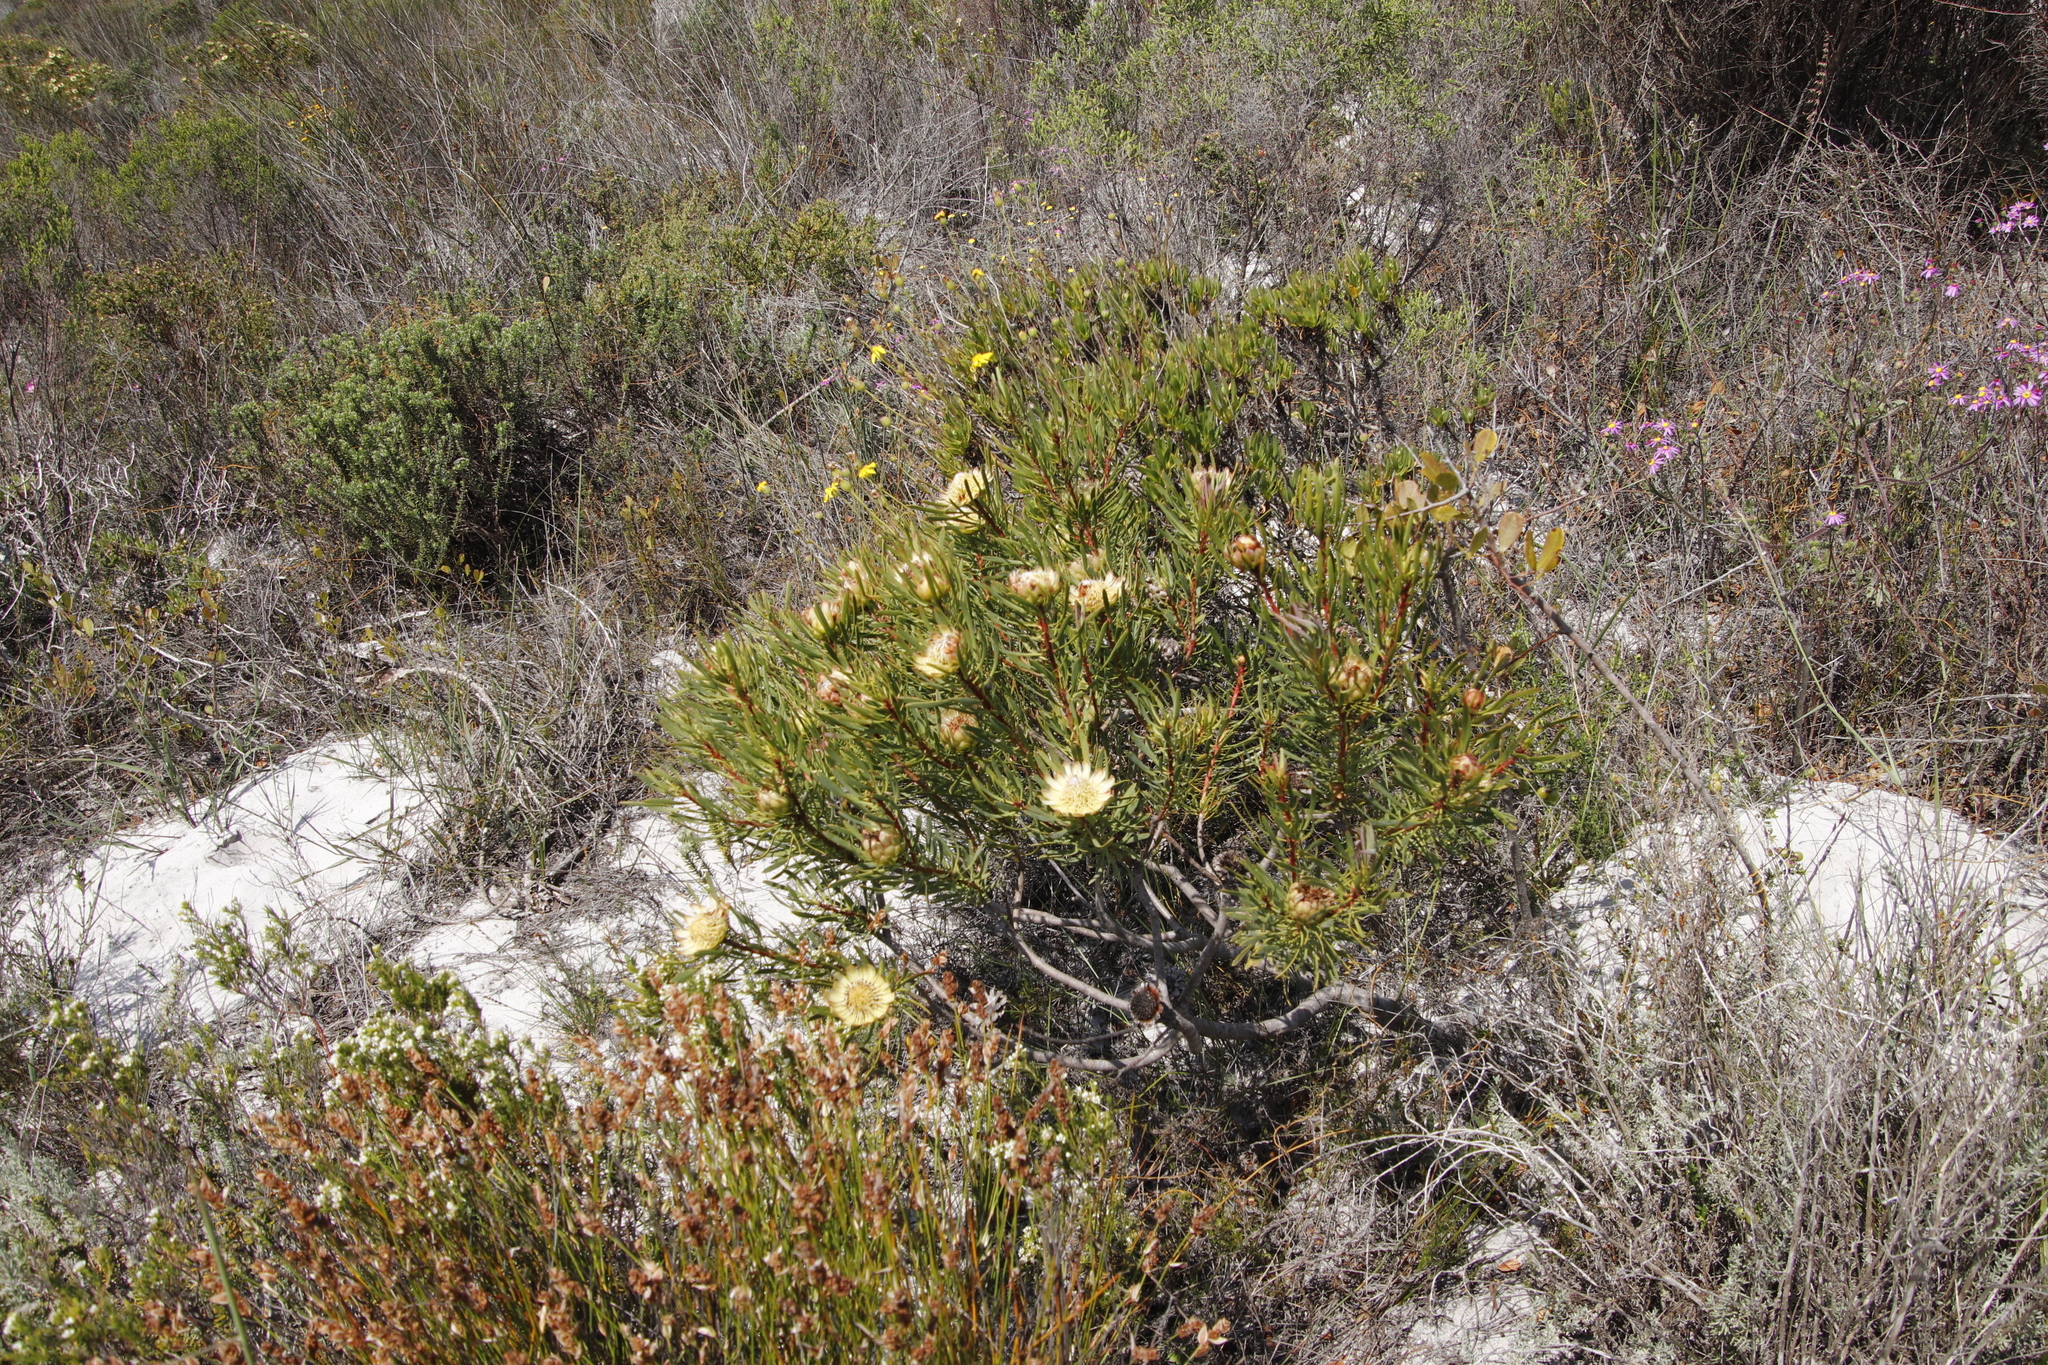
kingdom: Plantae
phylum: Tracheophyta
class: Magnoliopsida
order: Proteales
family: Proteaceae
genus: Protea
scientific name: Protea scolymocephala
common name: Thistle sugarbush
